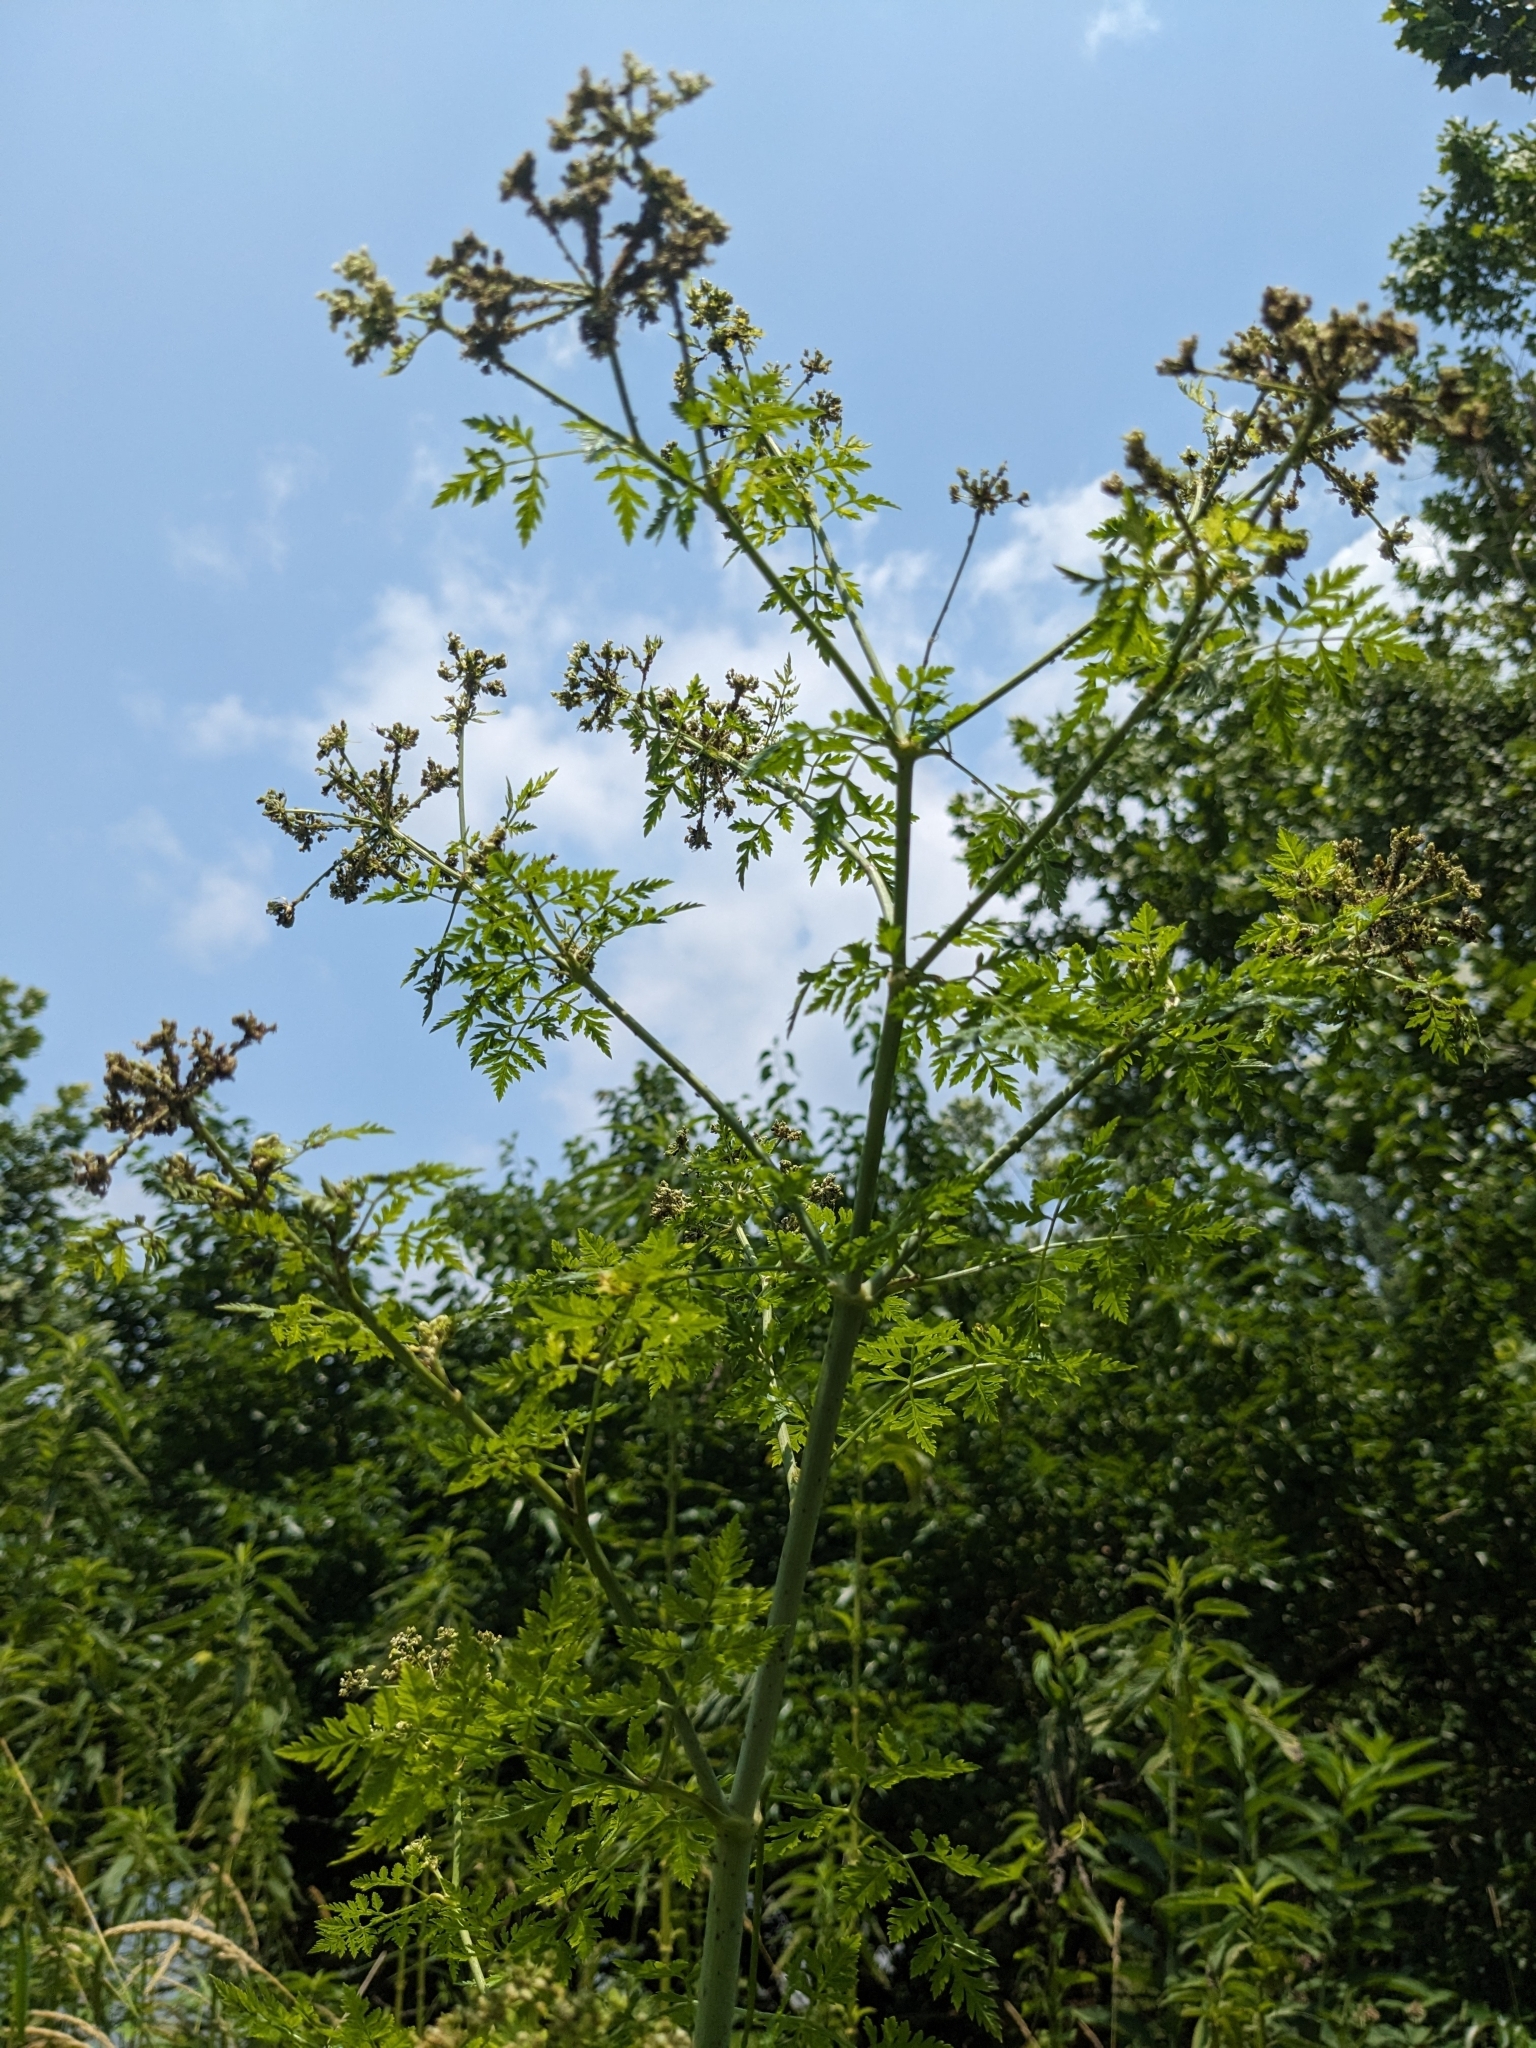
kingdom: Plantae
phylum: Tracheophyta
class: Magnoliopsida
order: Apiales
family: Apiaceae
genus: Conium
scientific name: Conium maculatum
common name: Hemlock
